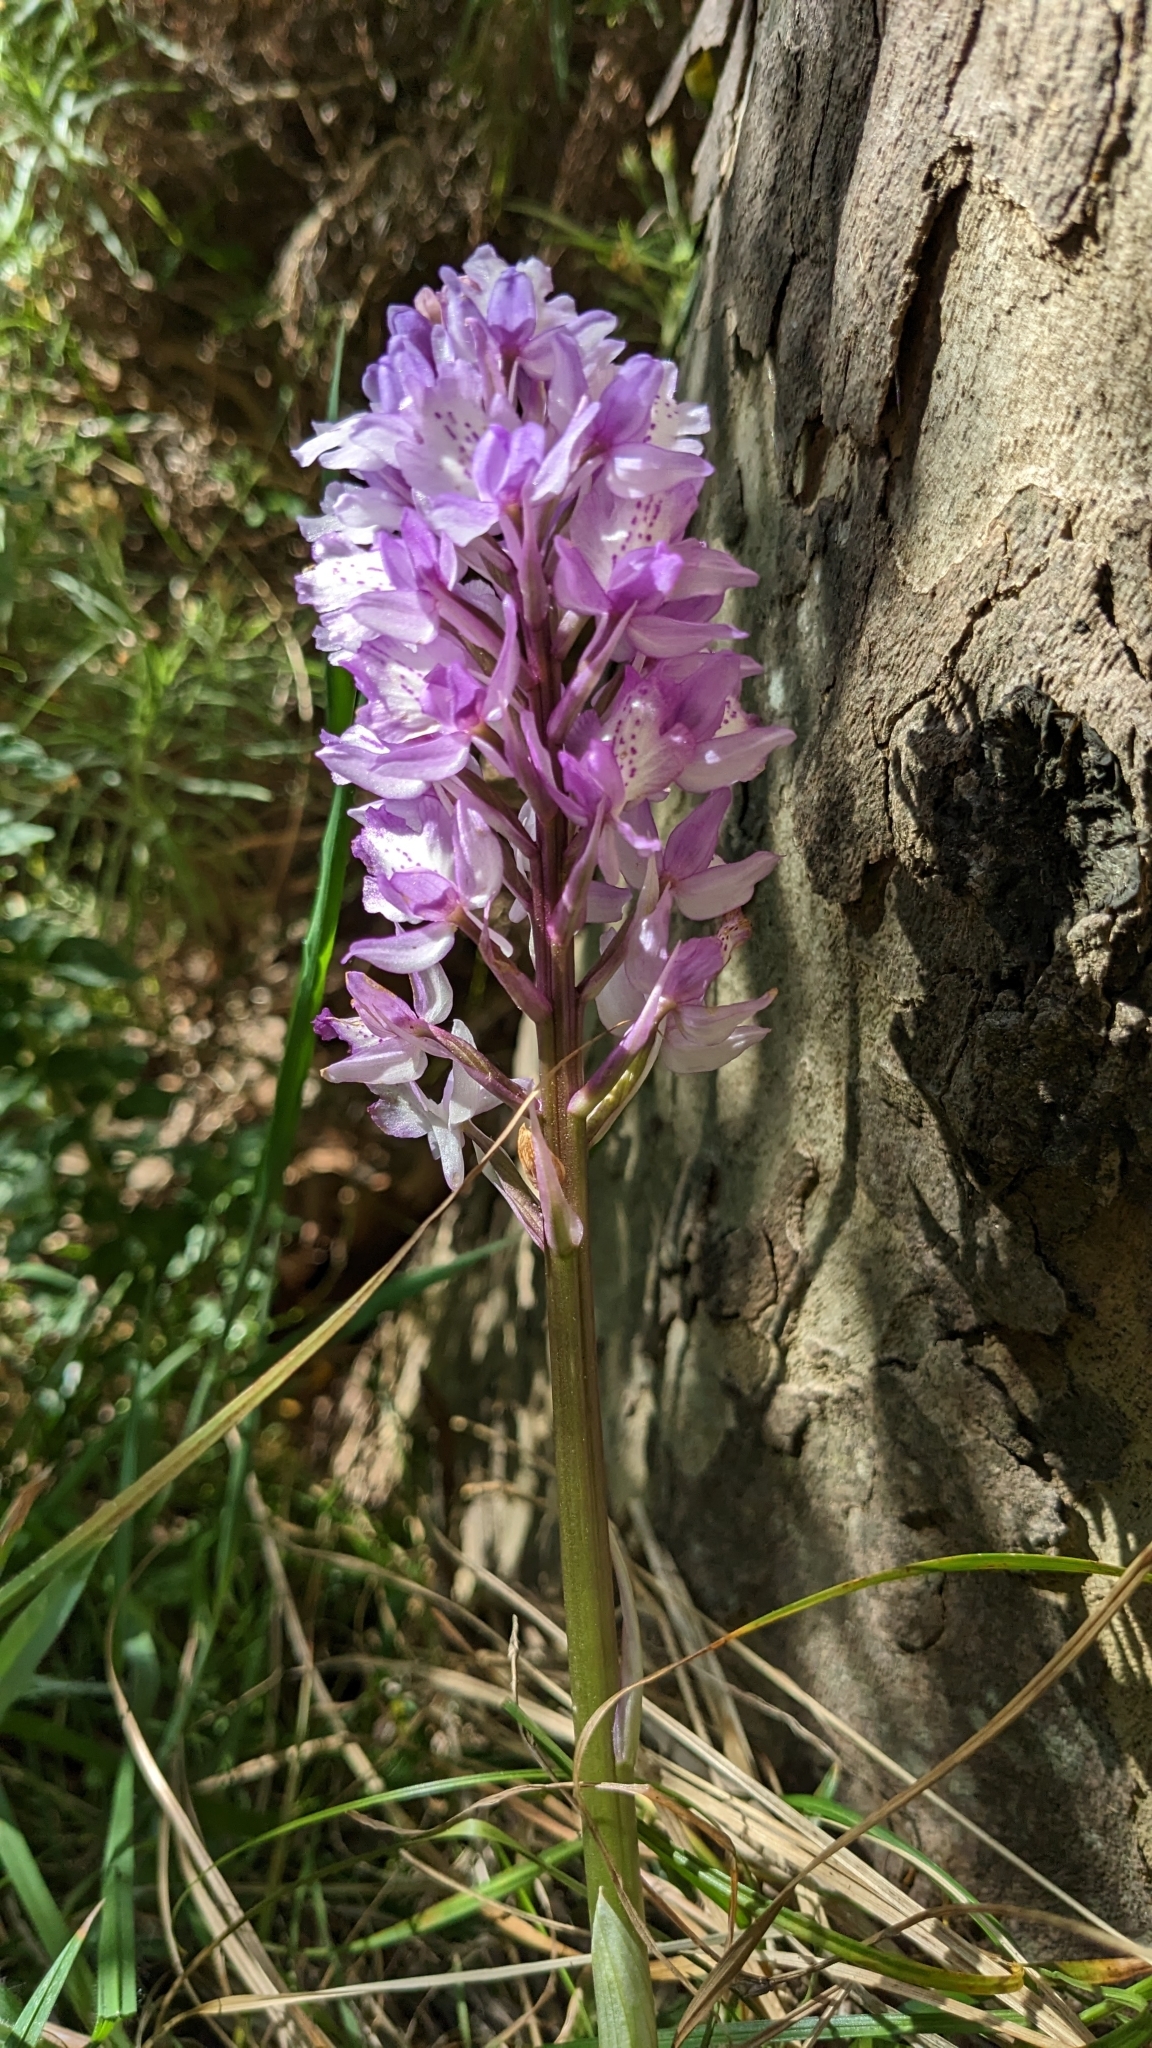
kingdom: Plantae
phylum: Tracheophyta
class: Liliopsida
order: Asparagales
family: Orchidaceae
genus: Orchis
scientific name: Orchis mascula
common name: Early-purple orchid
